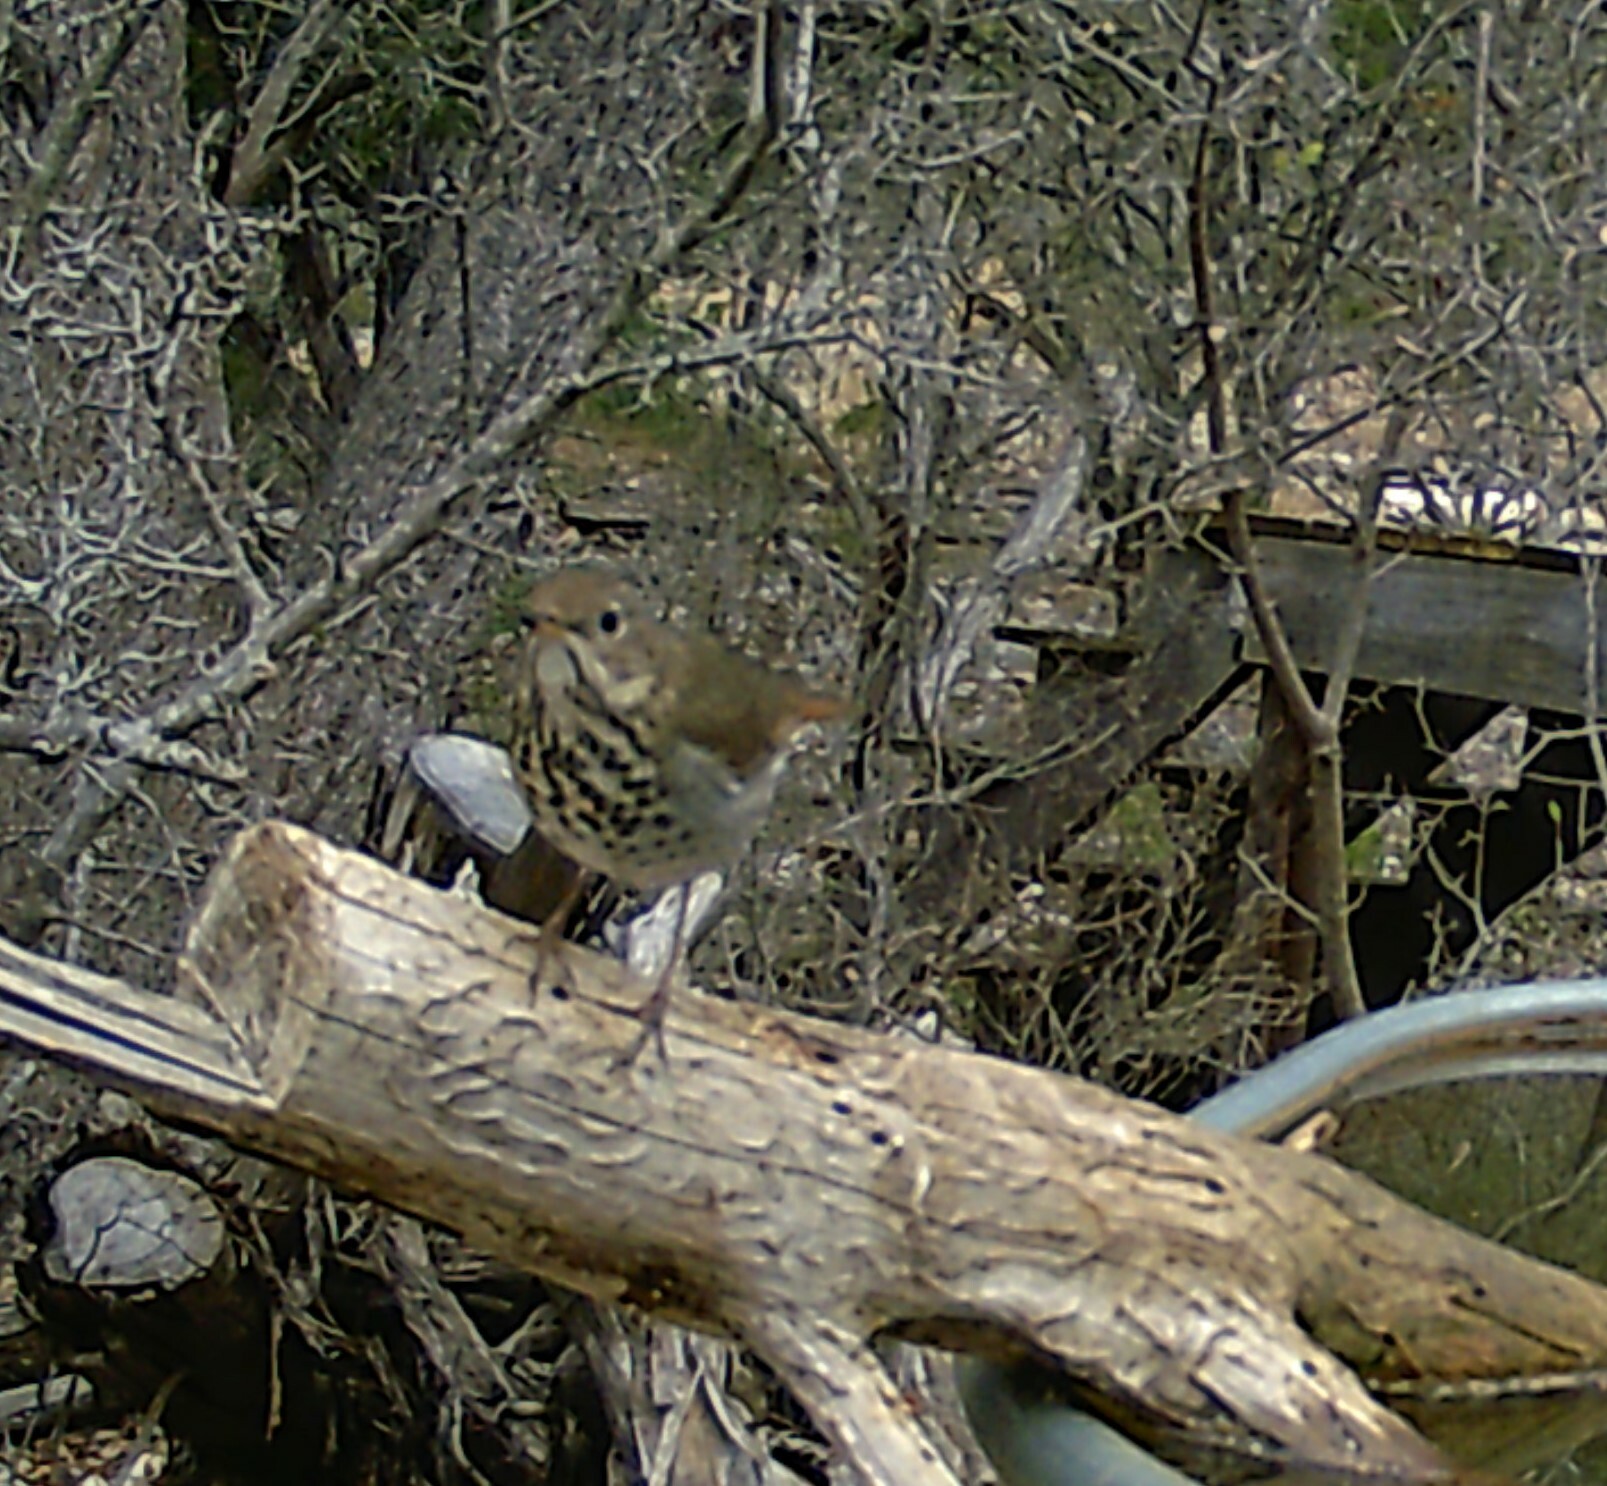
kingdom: Animalia
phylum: Chordata
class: Aves
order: Passeriformes
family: Turdidae
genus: Catharus
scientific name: Catharus guttatus
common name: Hermit thrush
